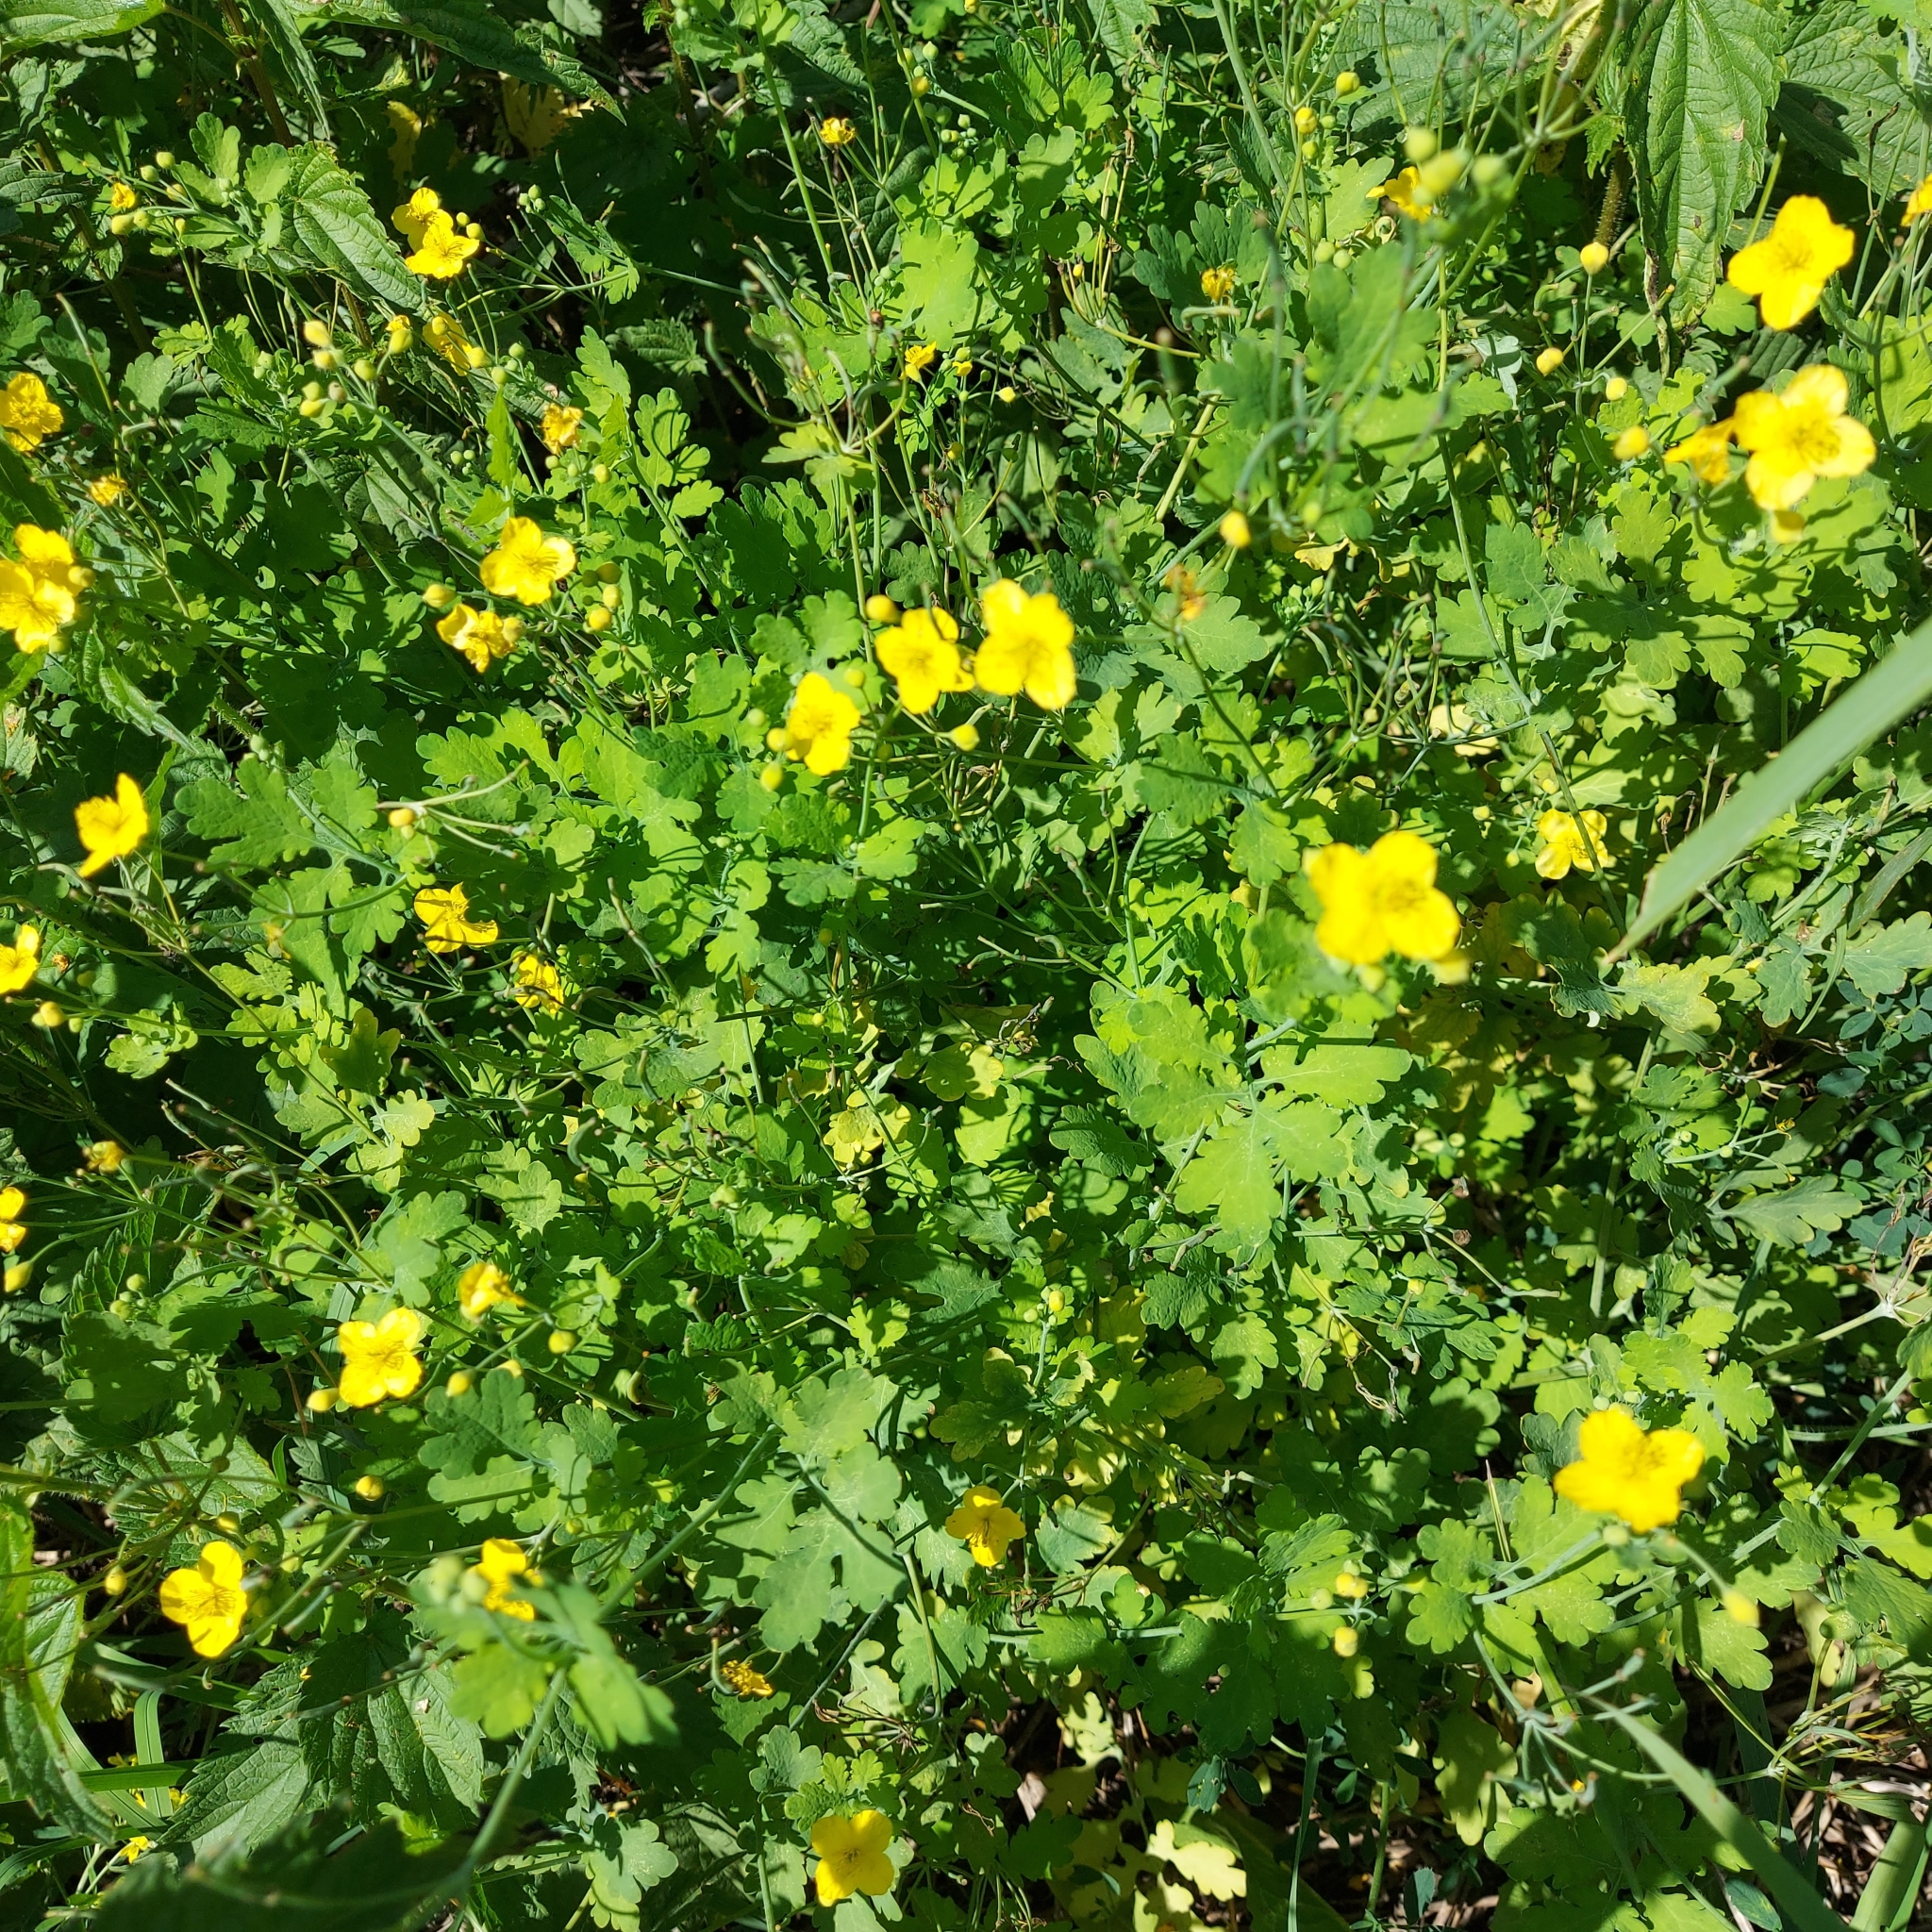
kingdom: Plantae
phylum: Tracheophyta
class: Magnoliopsida
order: Ranunculales
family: Papaveraceae
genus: Chelidonium
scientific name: Chelidonium majus
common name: Greater celandine
